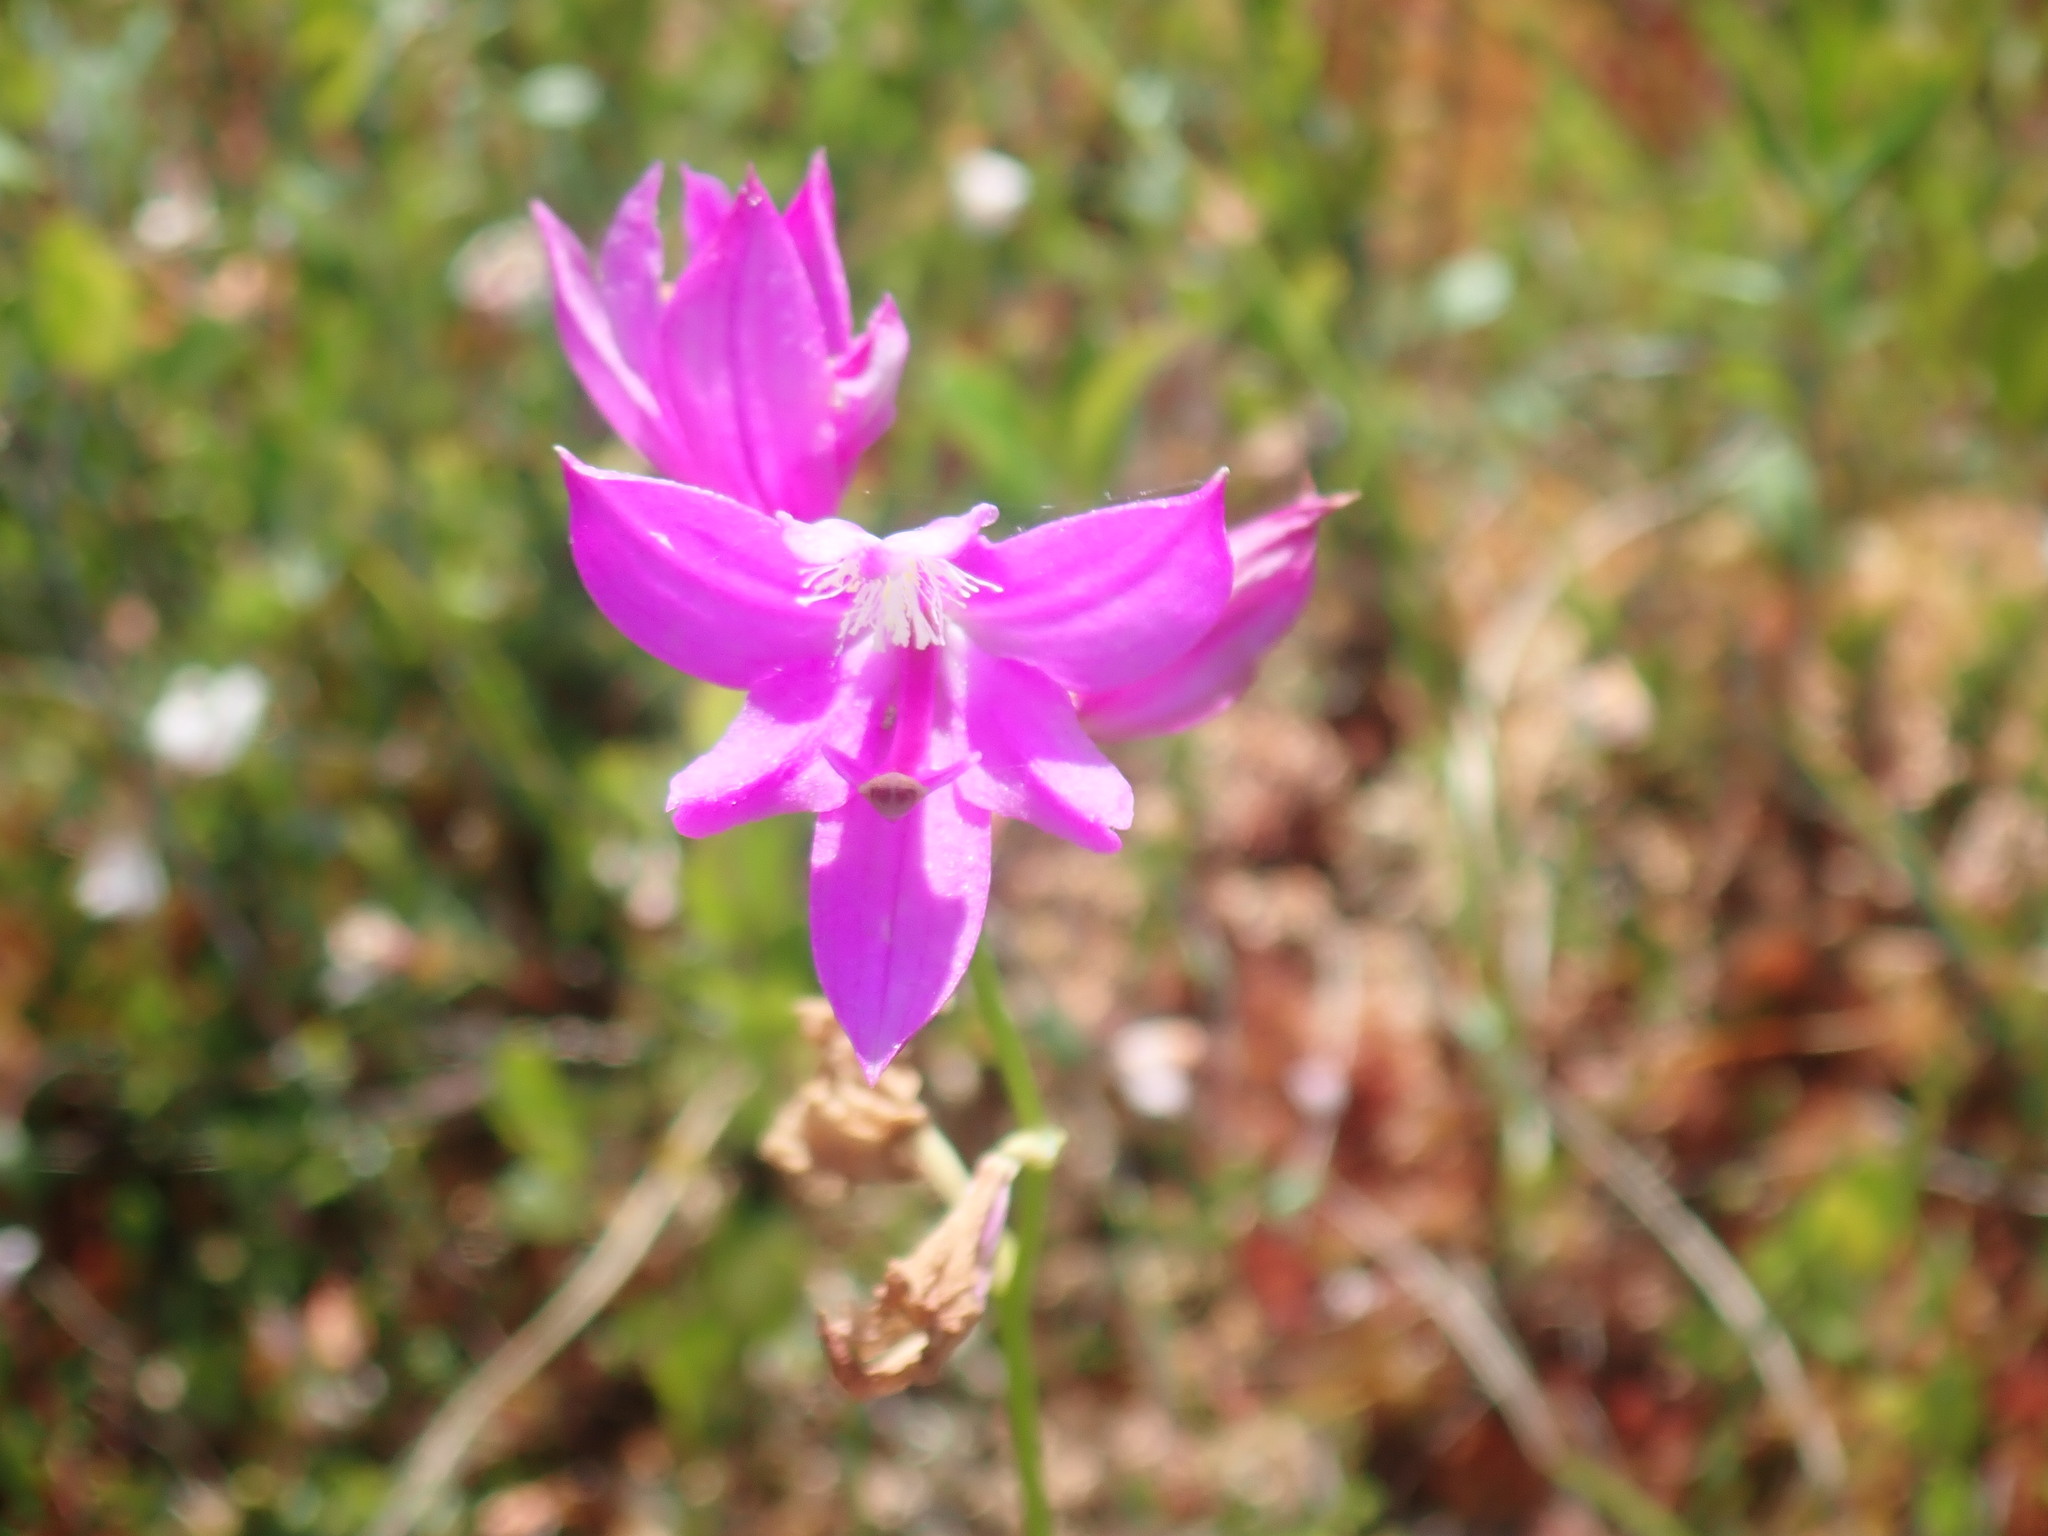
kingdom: Plantae
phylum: Tracheophyta
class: Liliopsida
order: Asparagales
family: Orchidaceae
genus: Calopogon
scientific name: Calopogon tuberosus
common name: Grass-pink
